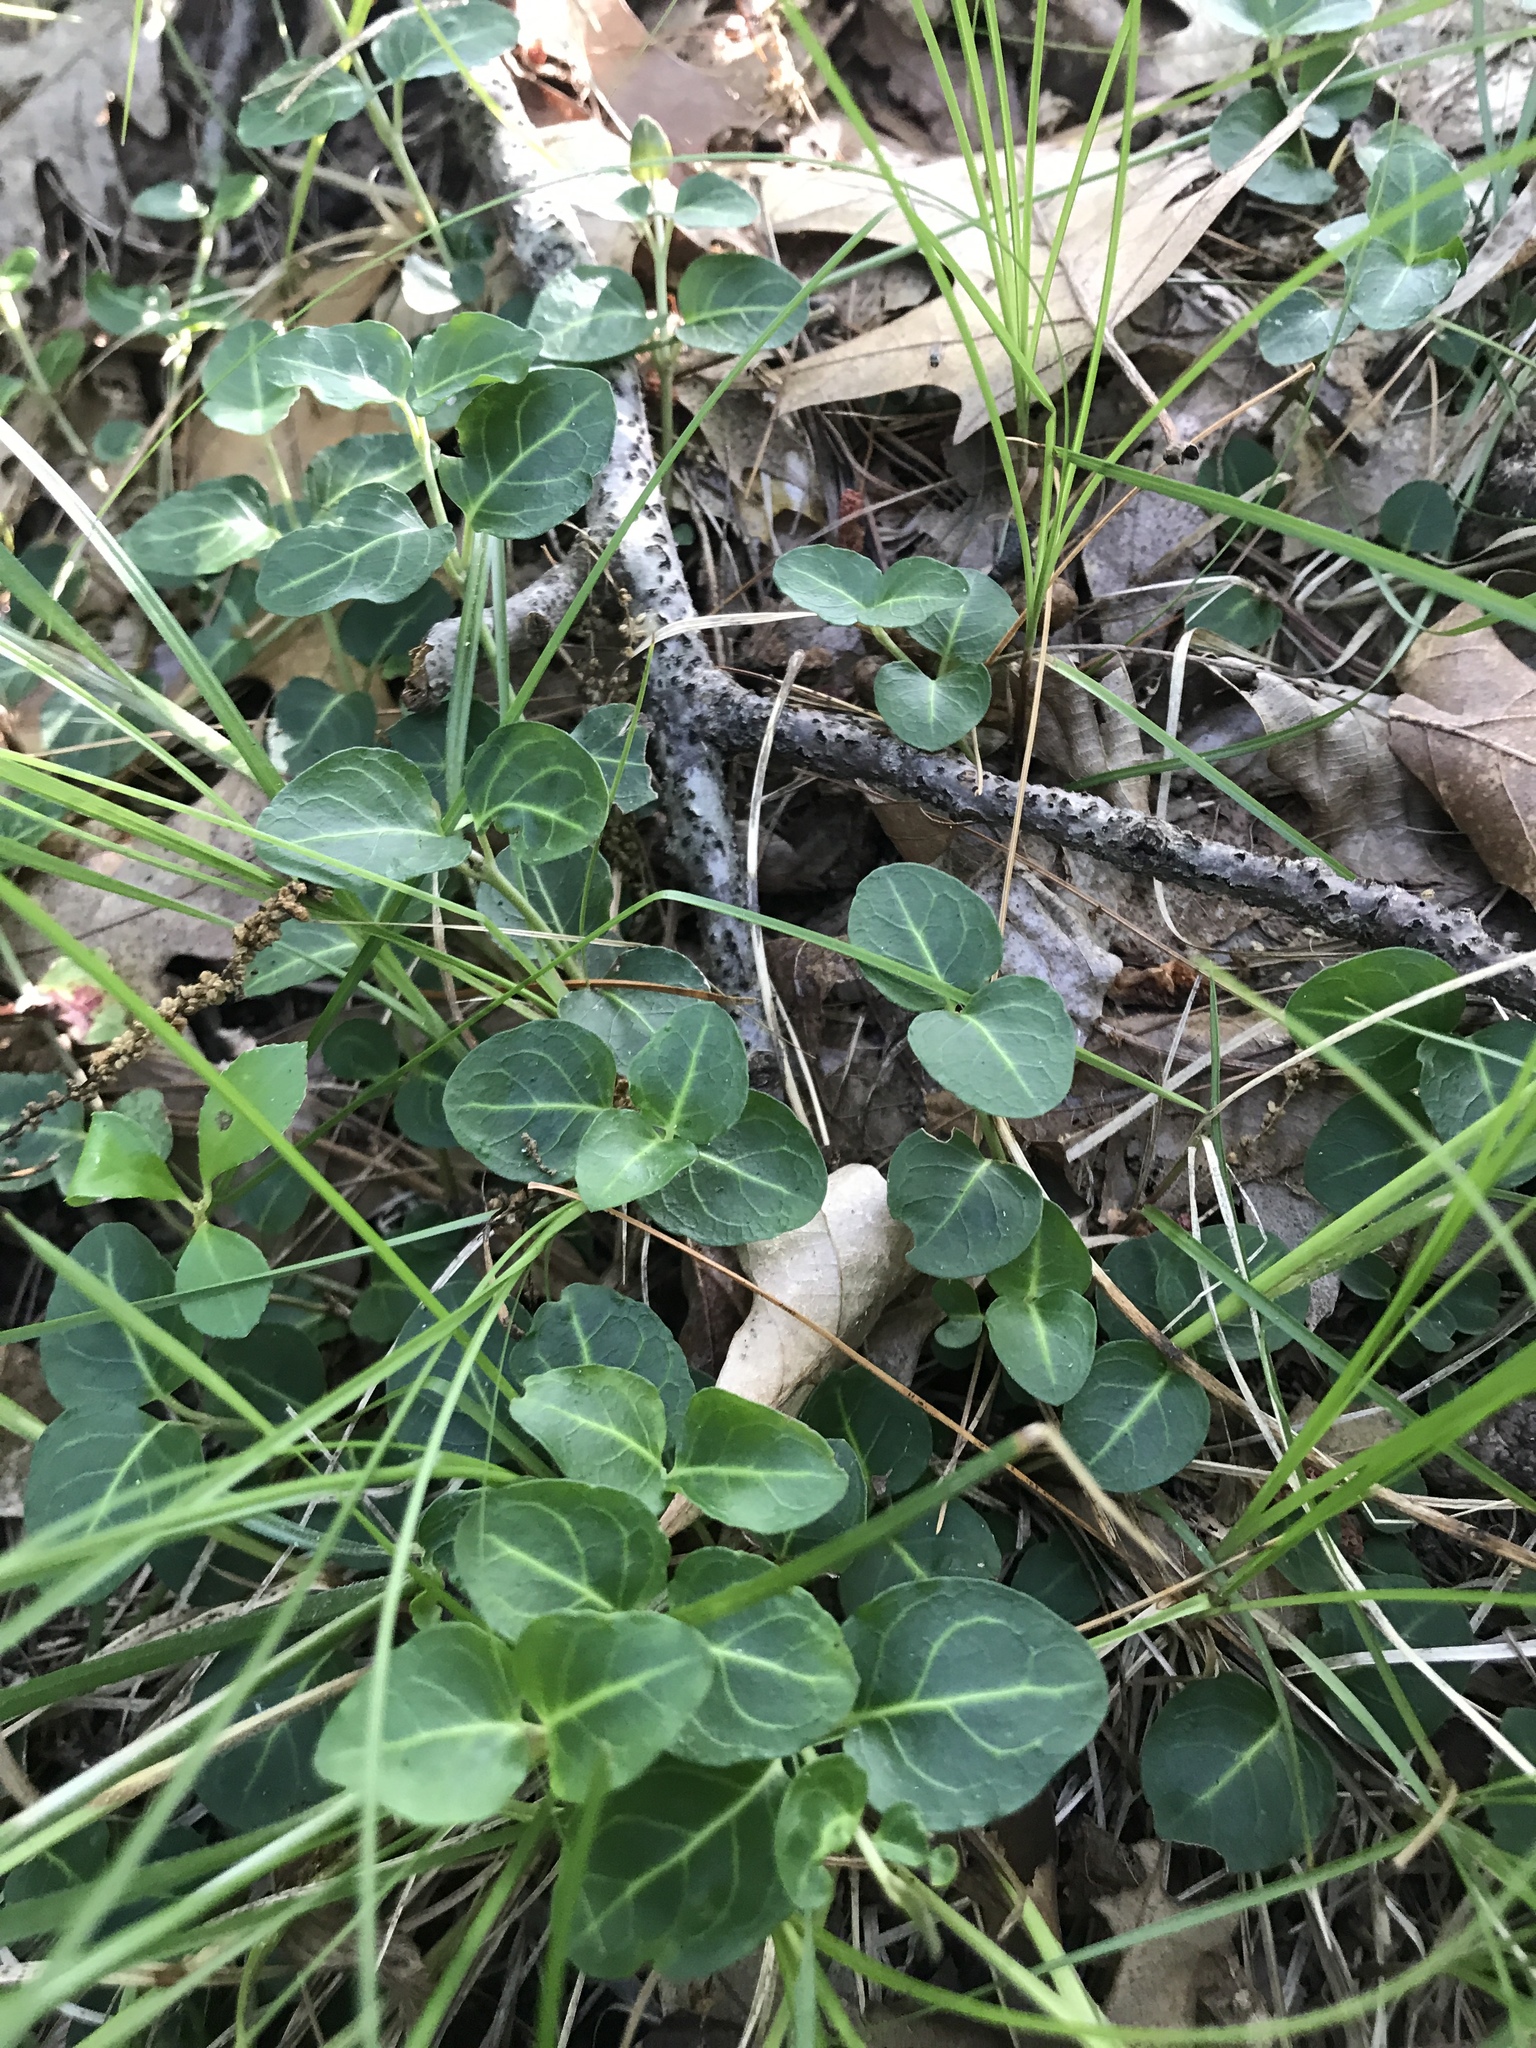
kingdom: Plantae
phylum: Tracheophyta
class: Magnoliopsida
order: Gentianales
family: Rubiaceae
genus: Mitchella
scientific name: Mitchella repens
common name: Partridge-berry
